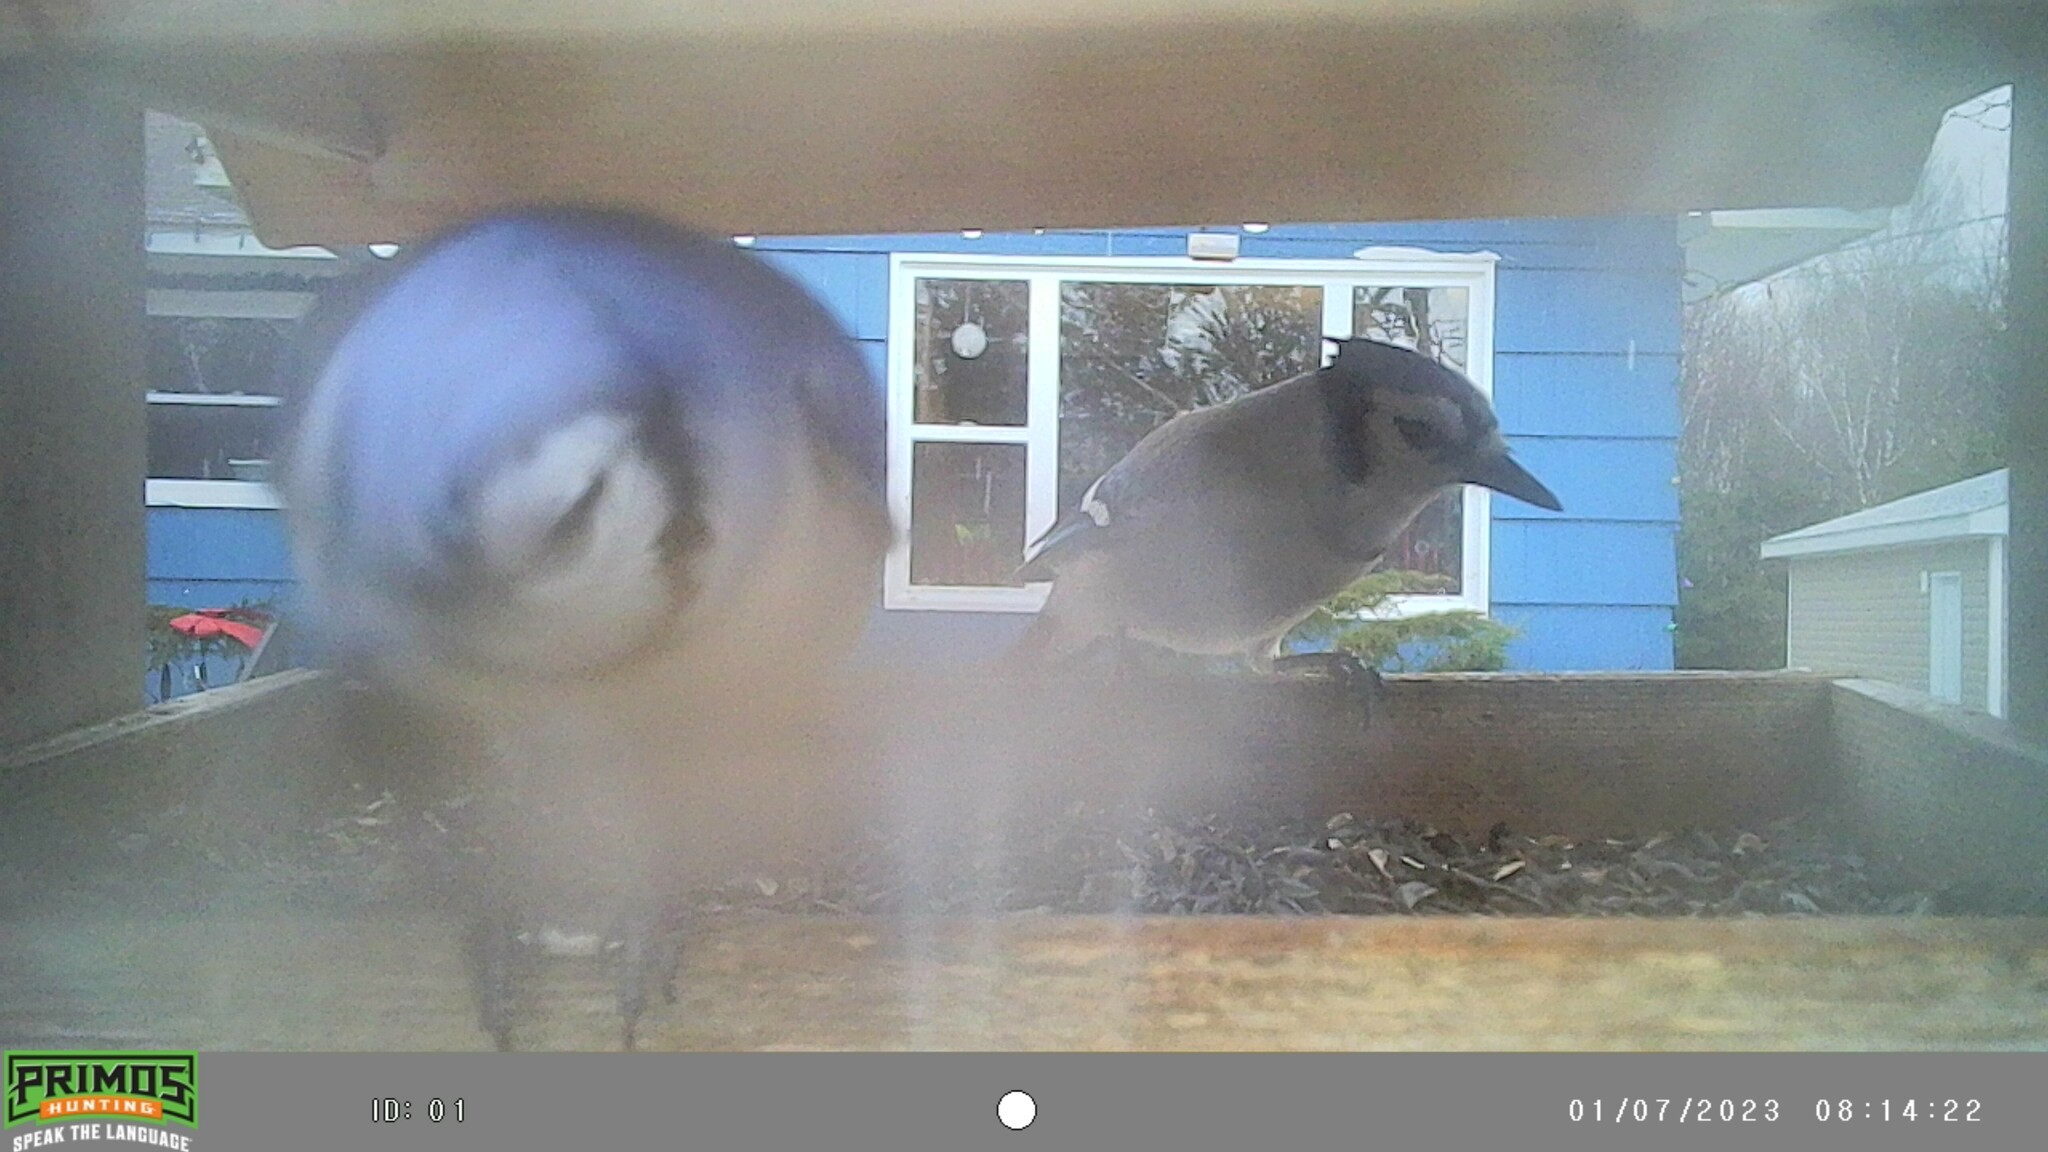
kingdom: Animalia
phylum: Chordata
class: Aves
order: Passeriformes
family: Corvidae
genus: Cyanocitta
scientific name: Cyanocitta cristata
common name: Blue jay
